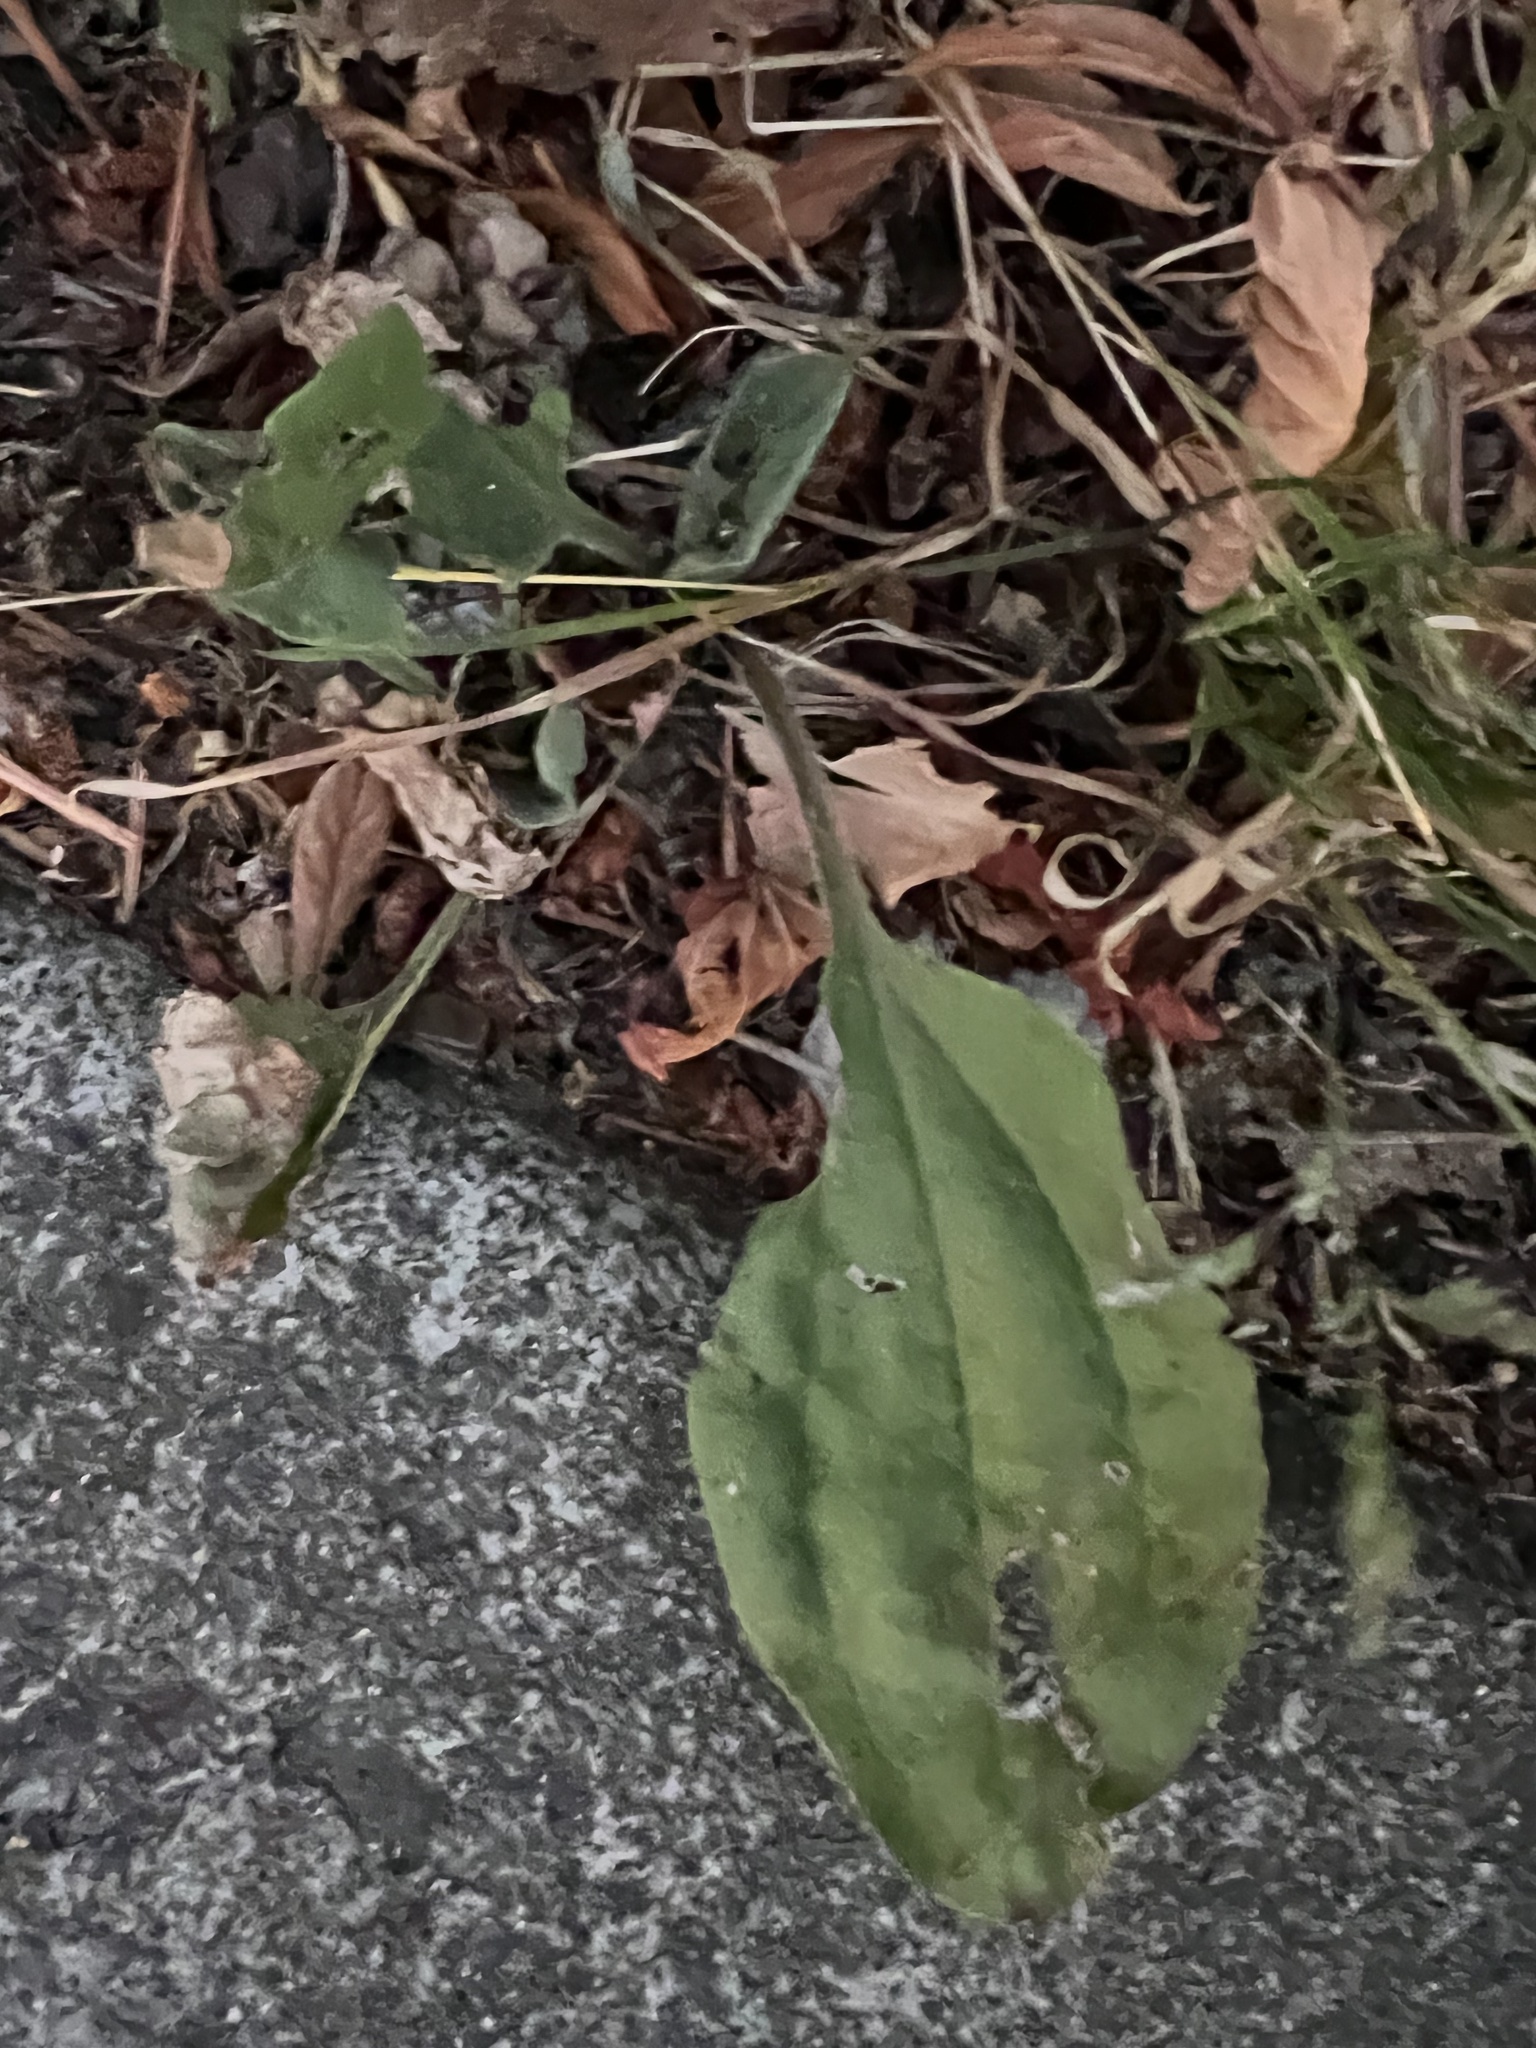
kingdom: Plantae
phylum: Tracheophyta
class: Magnoliopsida
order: Lamiales
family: Plantaginaceae
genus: Plantago
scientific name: Plantago major
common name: Common plantain
